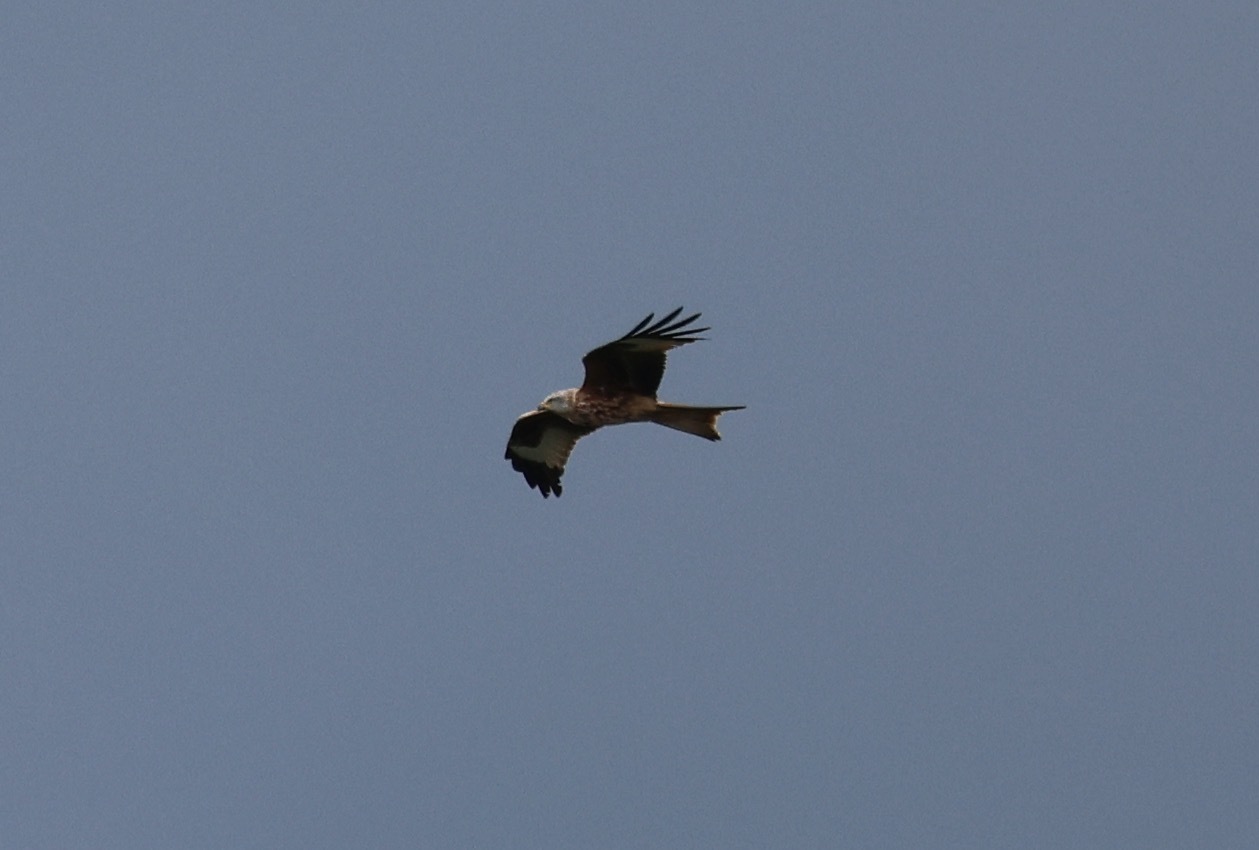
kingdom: Animalia
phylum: Chordata
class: Aves
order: Accipitriformes
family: Accipitridae
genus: Milvus
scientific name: Milvus milvus
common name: Red kite
